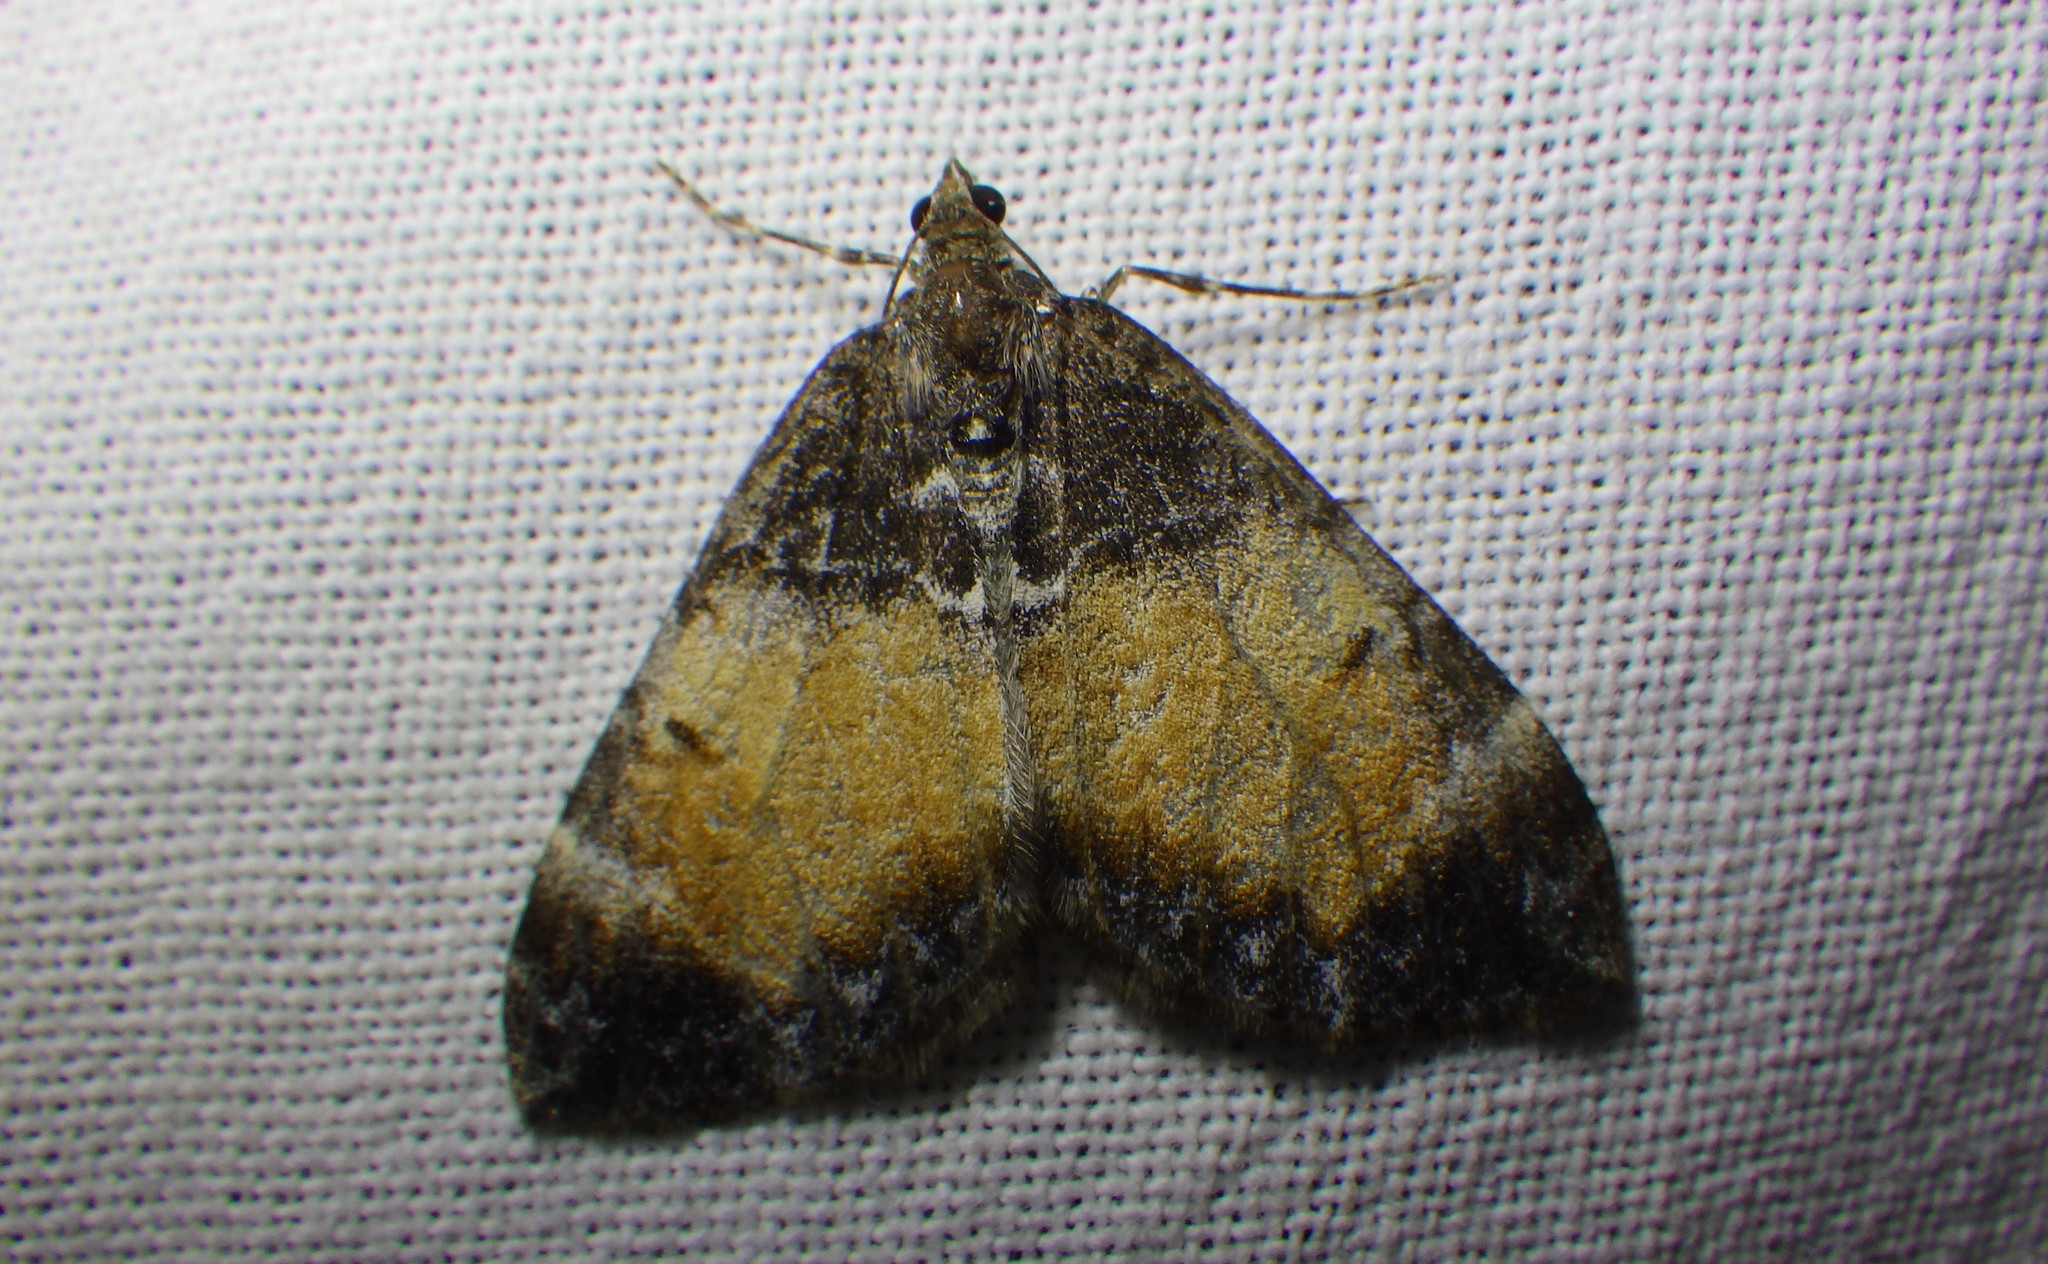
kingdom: Animalia
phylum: Arthropoda
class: Insecta
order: Lepidoptera
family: Geometridae
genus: Dysstroma
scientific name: Dysstroma truncata
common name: Common marbled carpet
